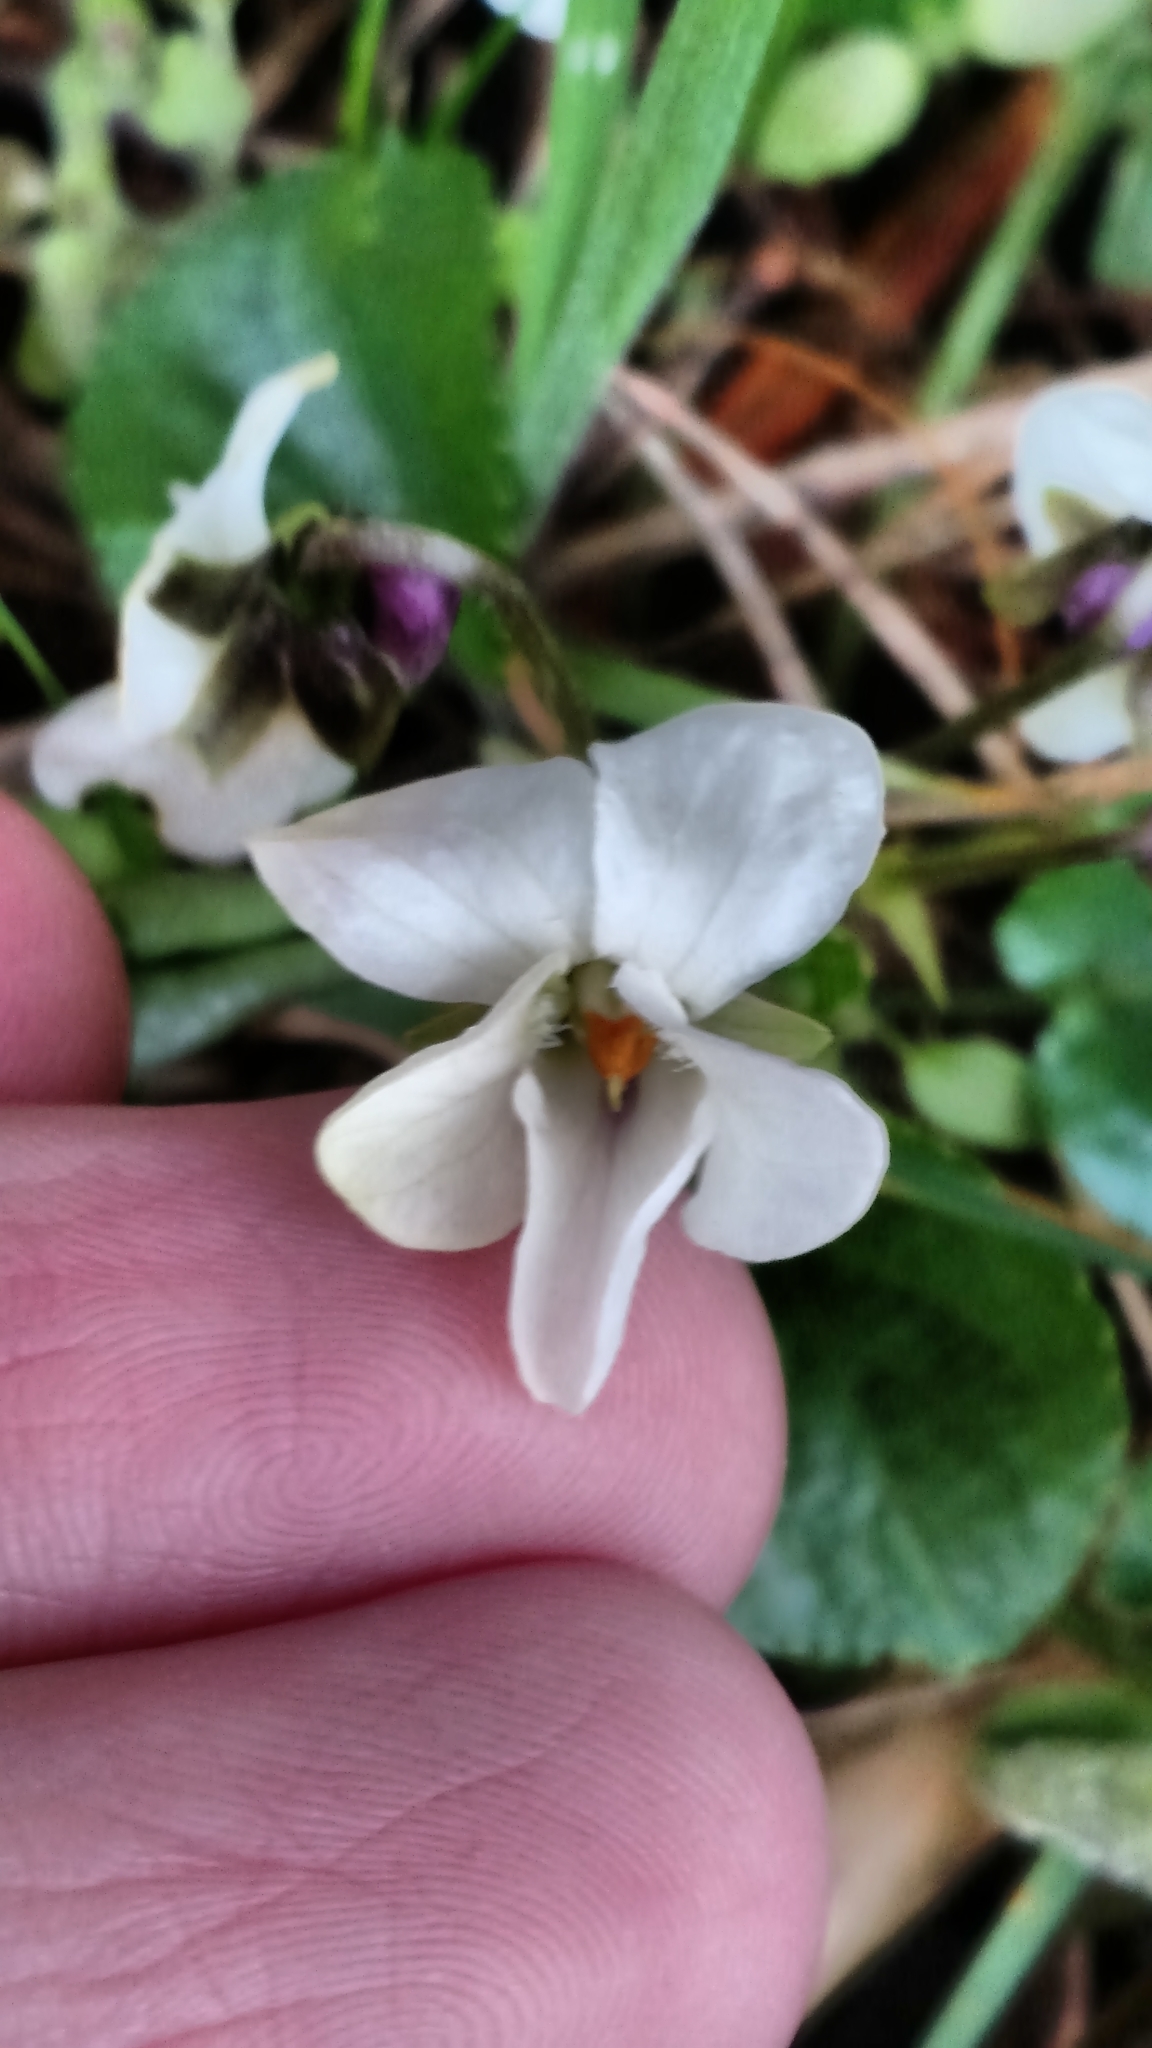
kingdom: Plantae
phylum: Tracheophyta
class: Magnoliopsida
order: Malpighiales
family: Violaceae
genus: Viola
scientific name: Viola odorata
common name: Sweet violet
